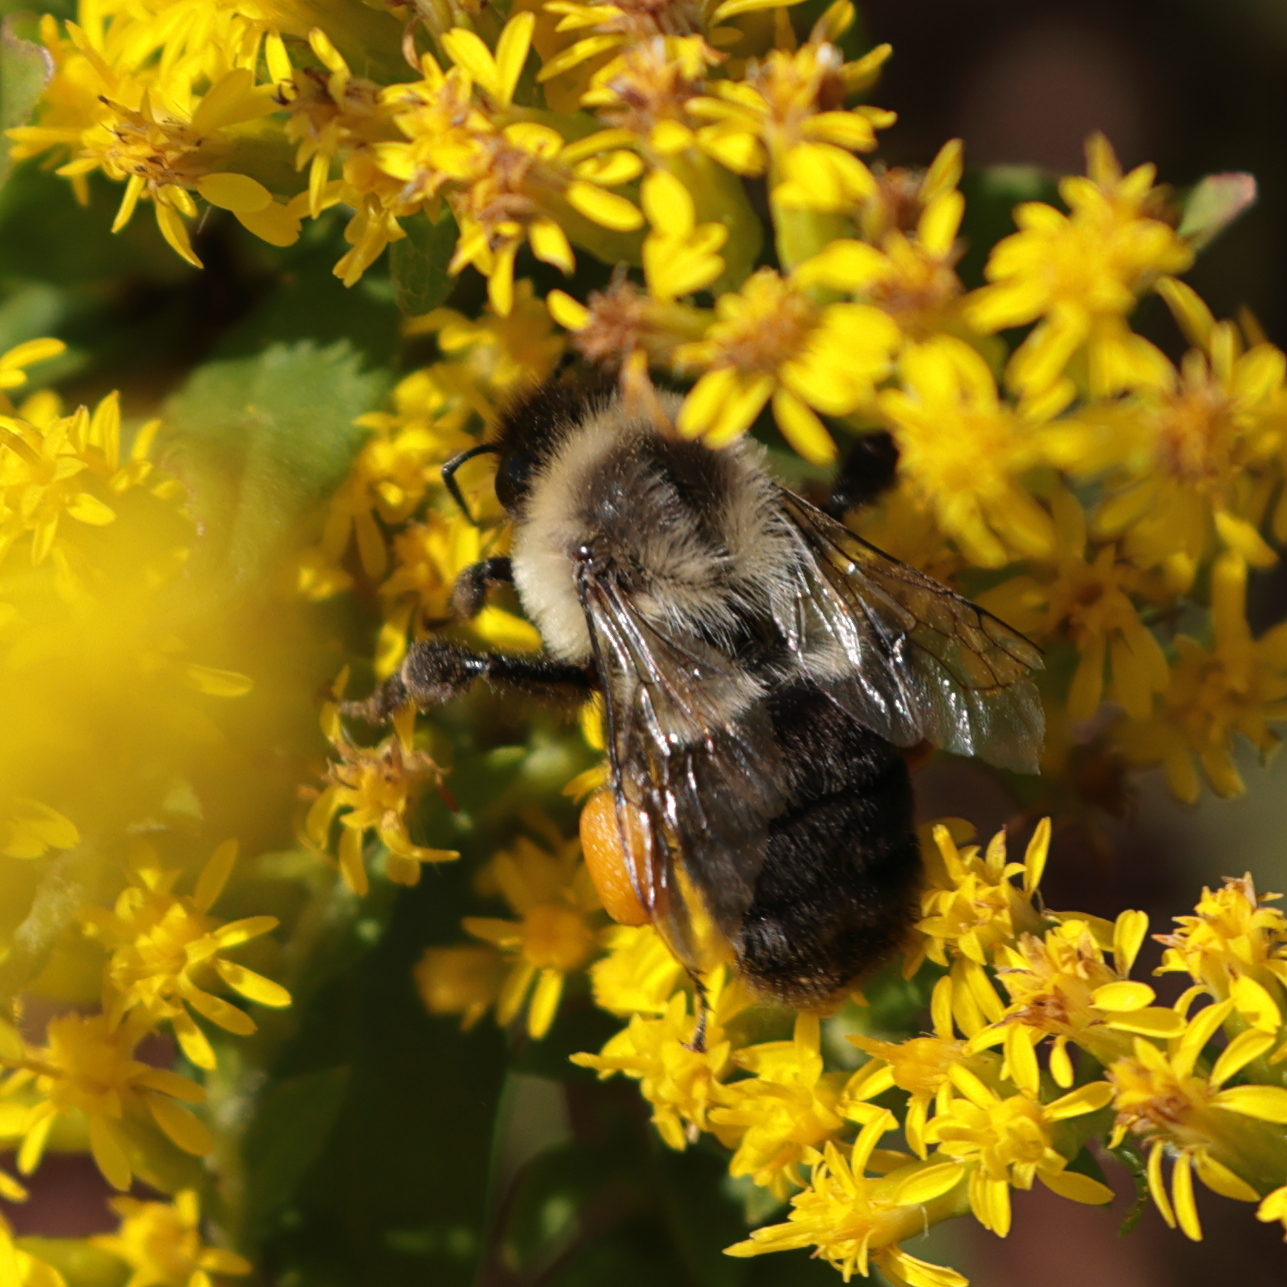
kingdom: Animalia
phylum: Arthropoda
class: Insecta
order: Hymenoptera
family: Apidae
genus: Bombus
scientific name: Bombus impatiens
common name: Common eastern bumble bee
